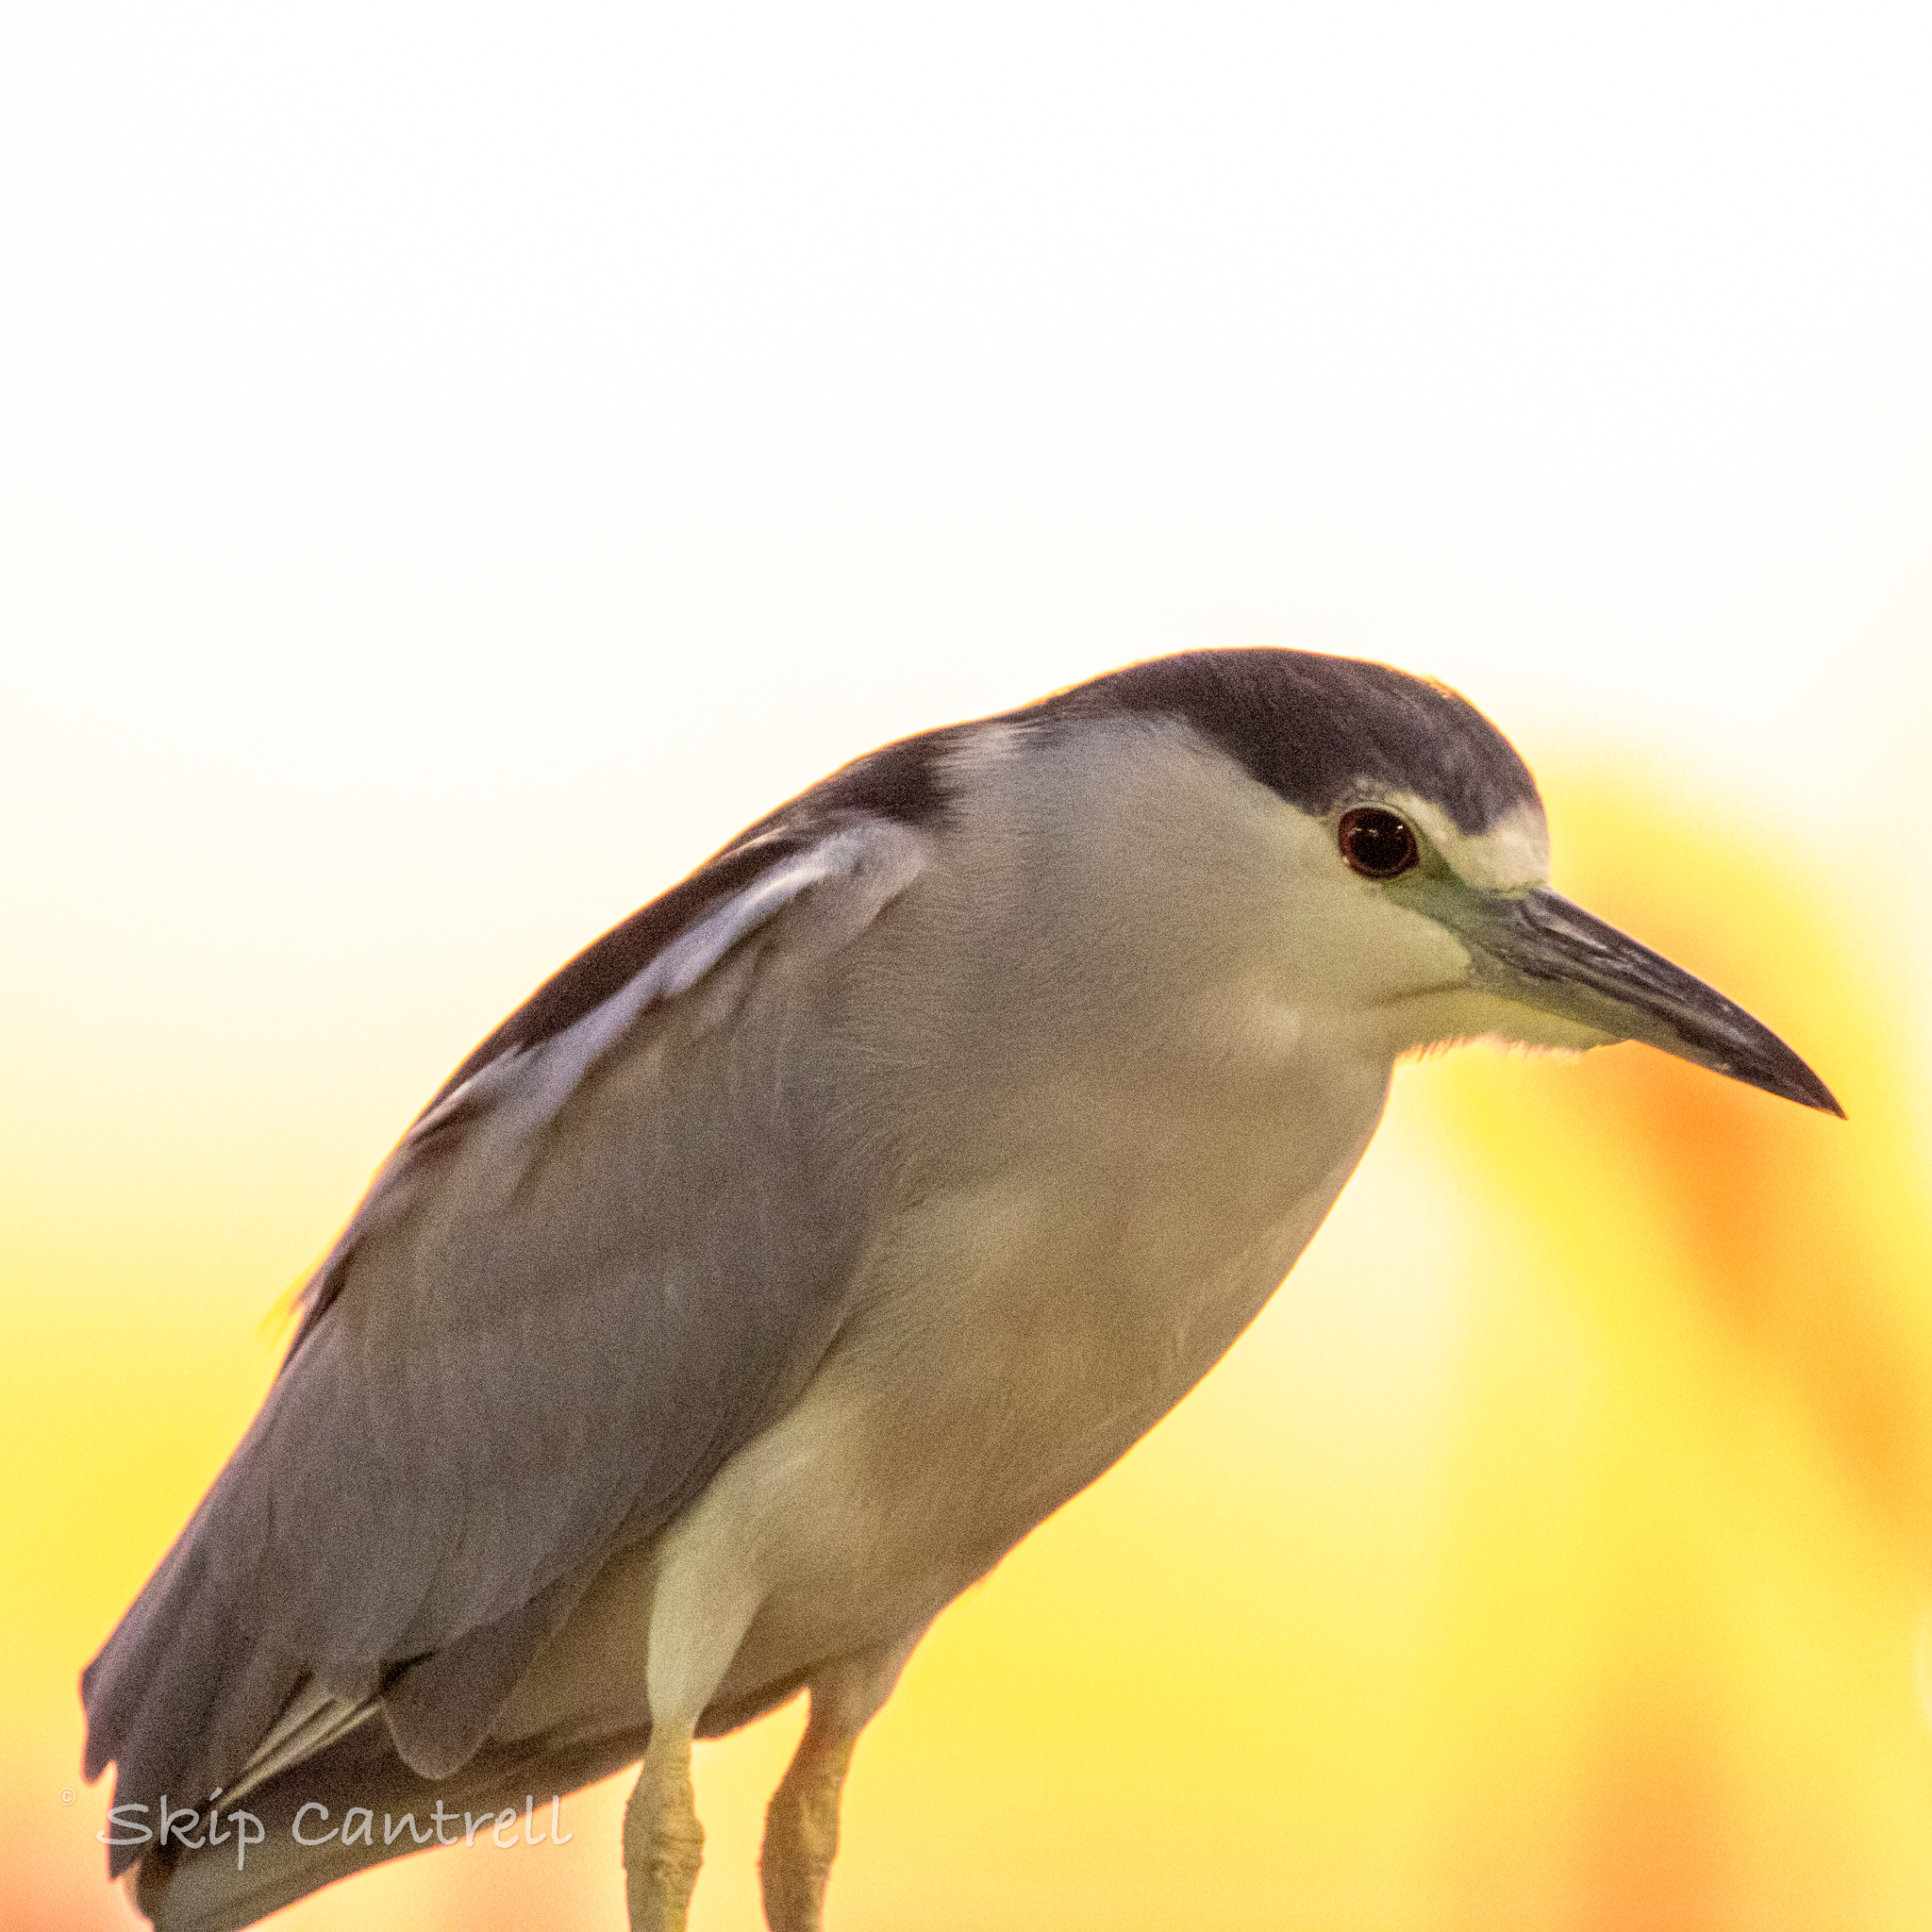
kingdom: Animalia
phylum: Chordata
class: Aves
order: Pelecaniformes
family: Ardeidae
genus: Nycticorax
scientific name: Nycticorax nycticorax
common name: Black-crowned night heron
